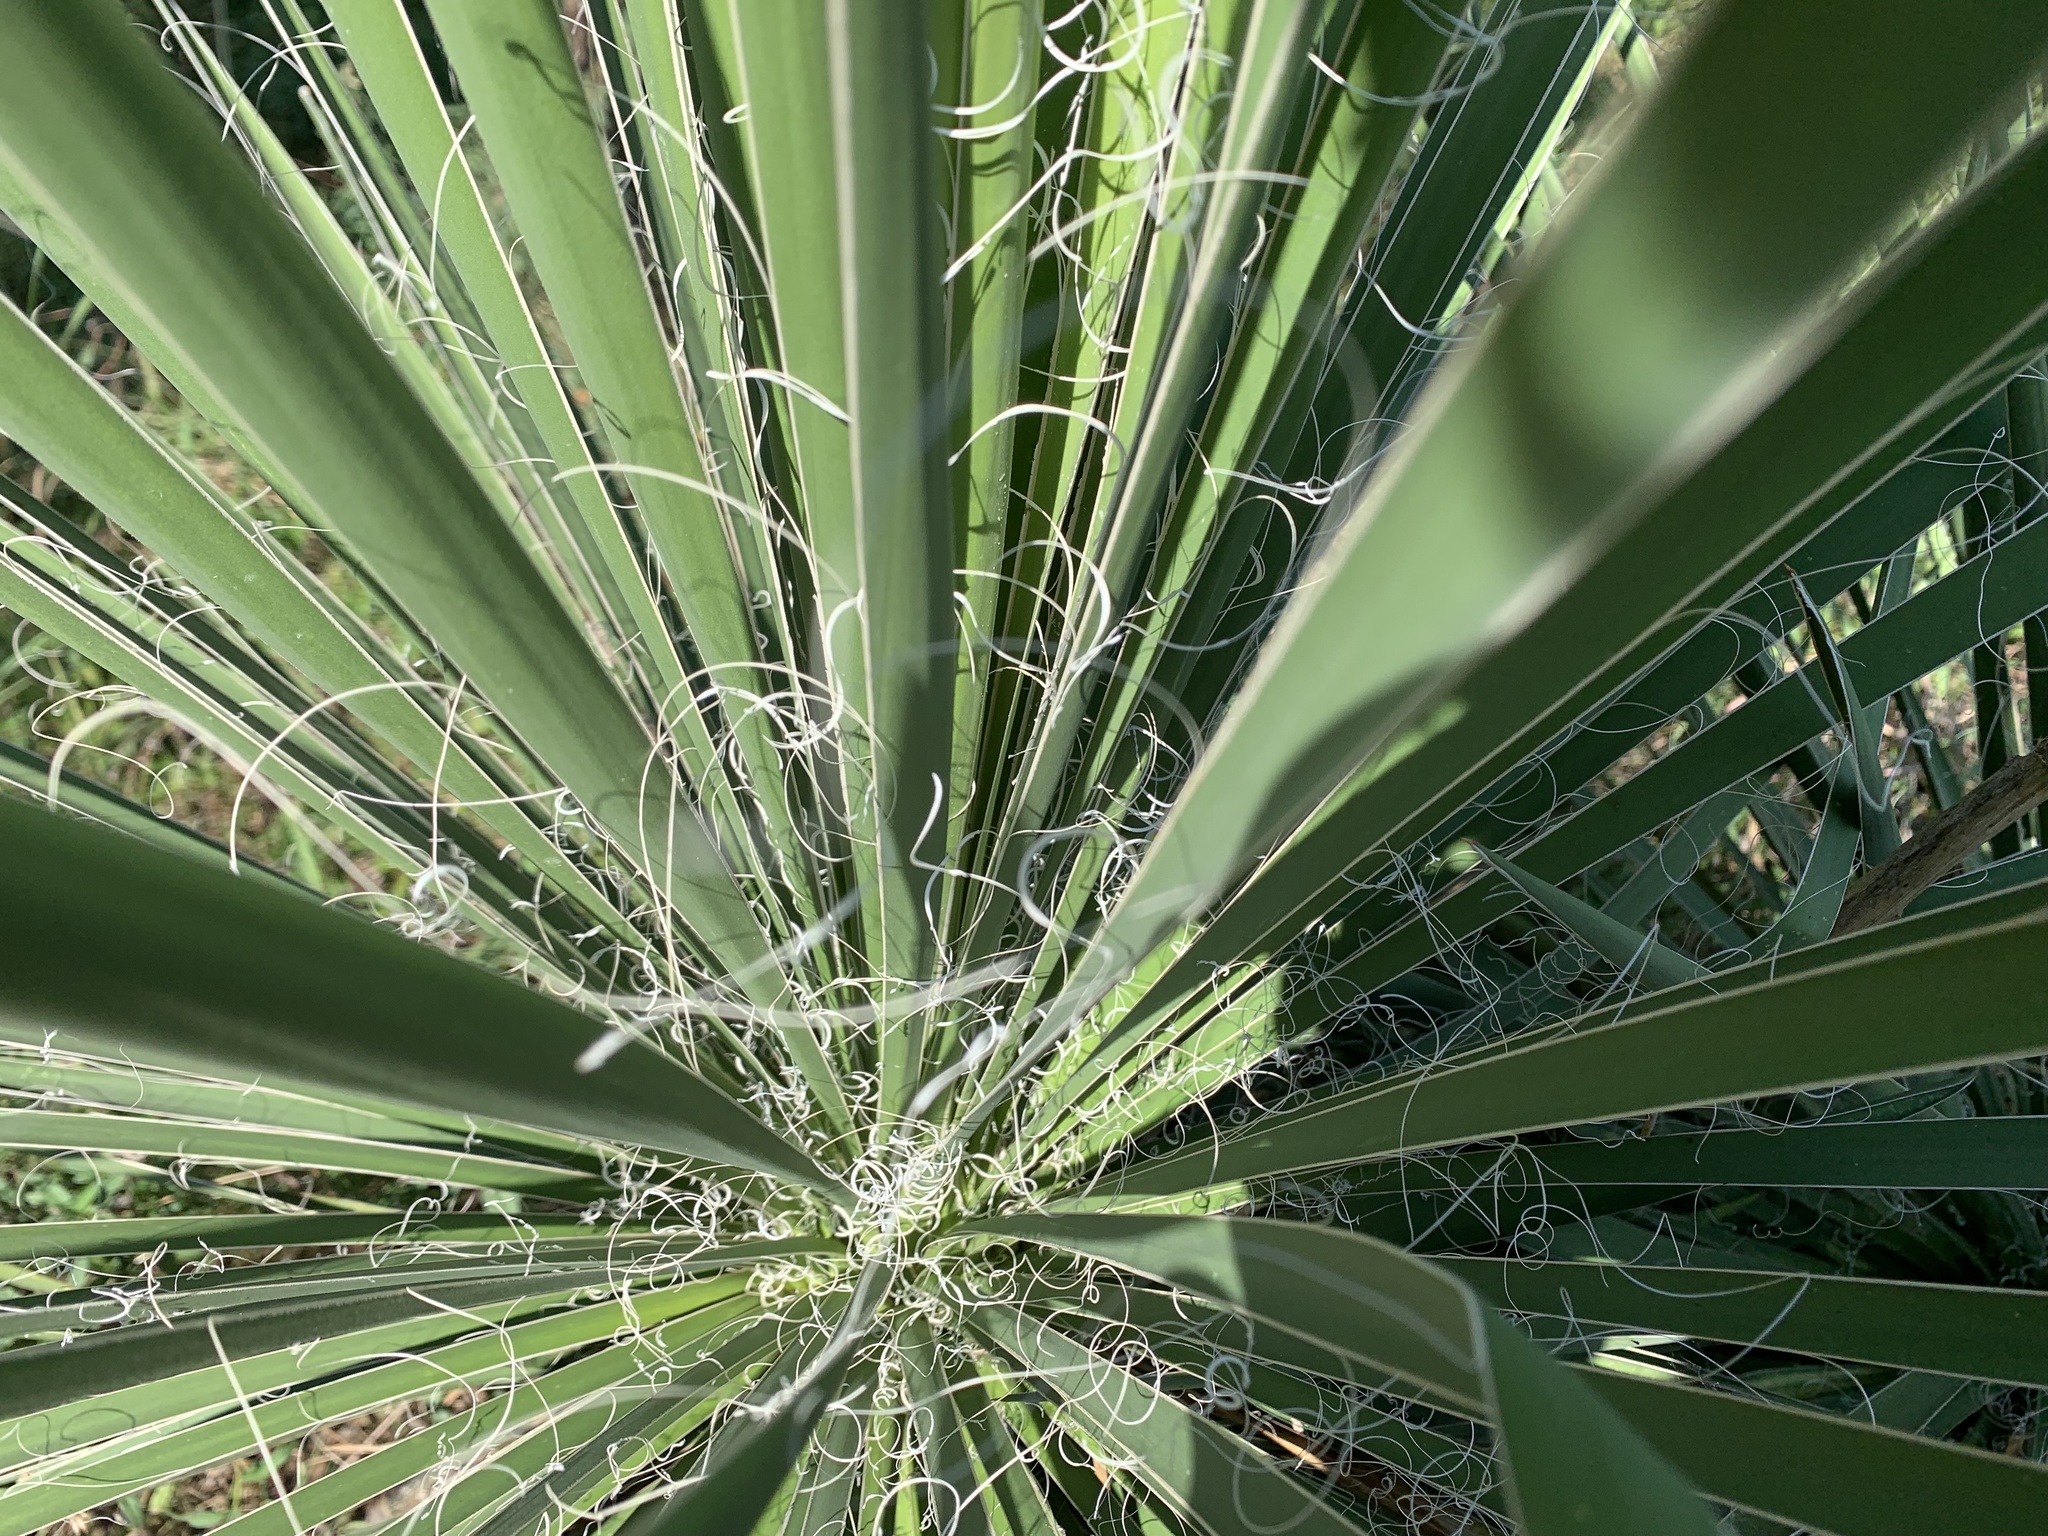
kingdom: Plantae
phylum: Tracheophyta
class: Liliopsida
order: Asparagales
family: Asparagaceae
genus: Yucca
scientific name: Yucca constricta
